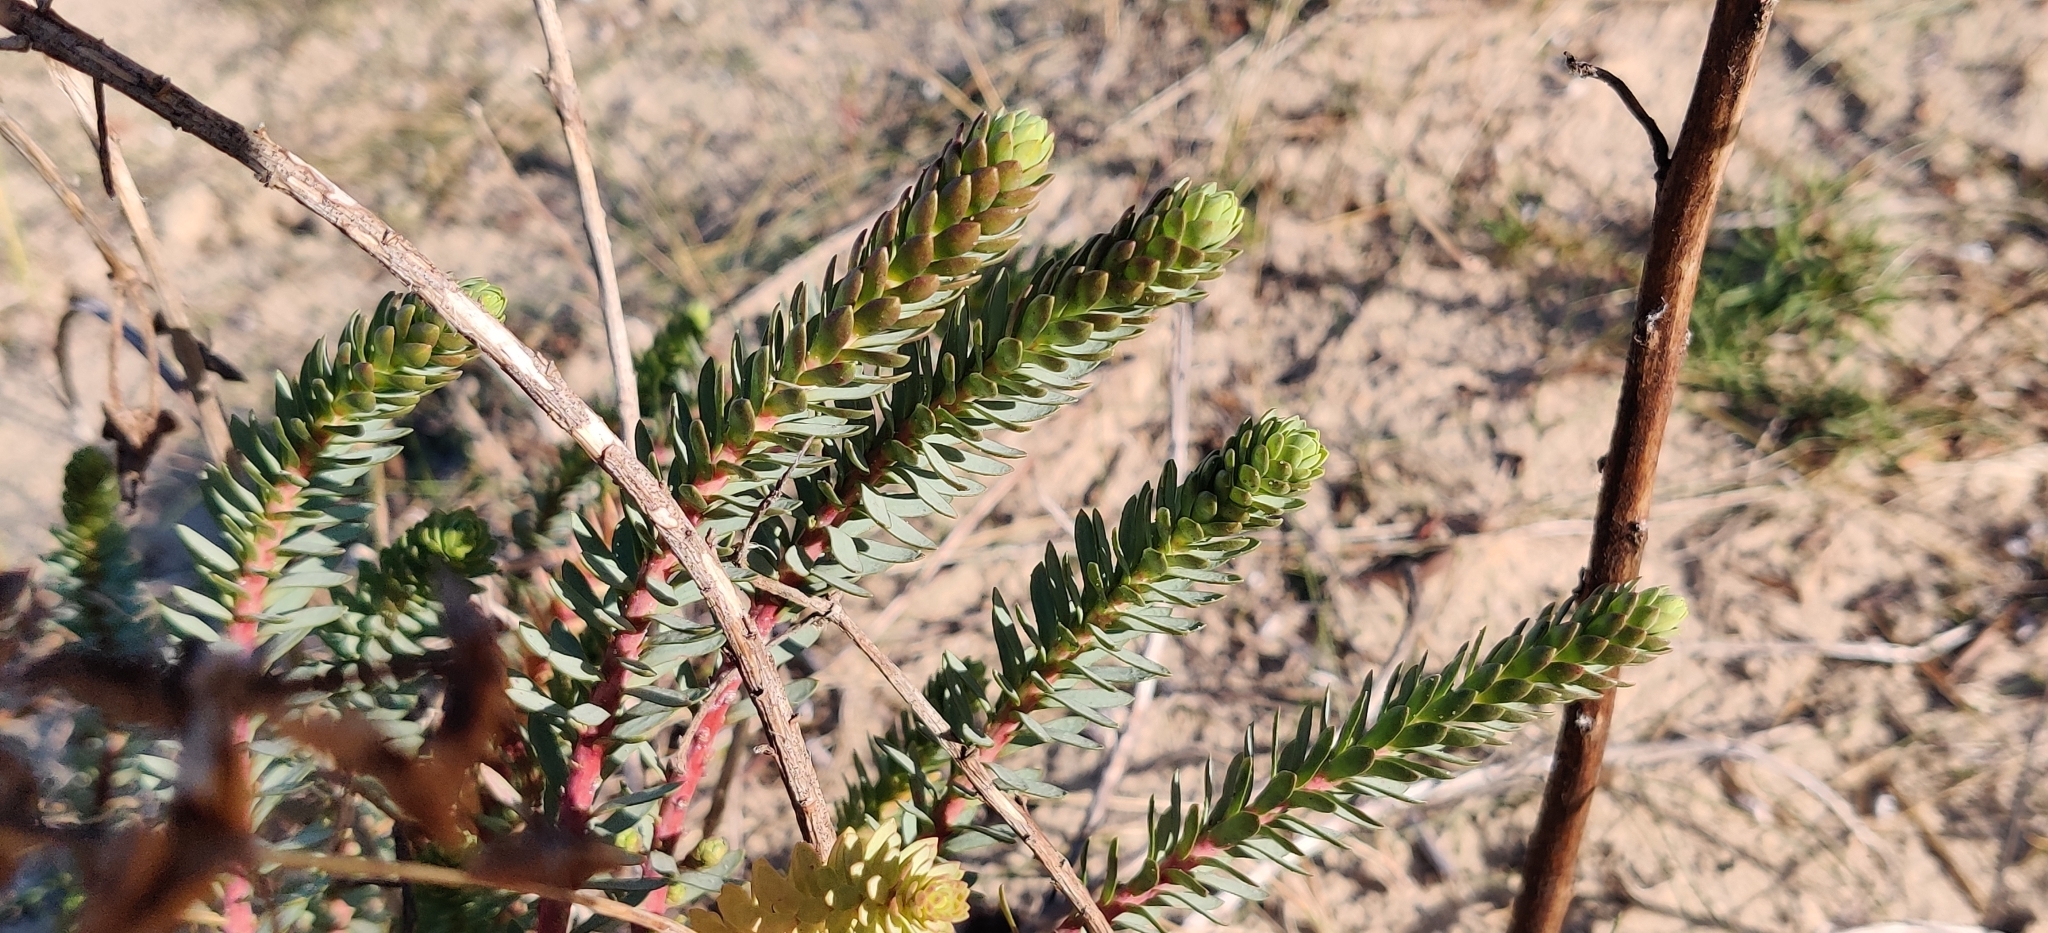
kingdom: Plantae
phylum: Tracheophyta
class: Magnoliopsida
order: Malpighiales
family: Euphorbiaceae
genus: Euphorbia
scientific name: Euphorbia paralias
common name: Sea spurge
